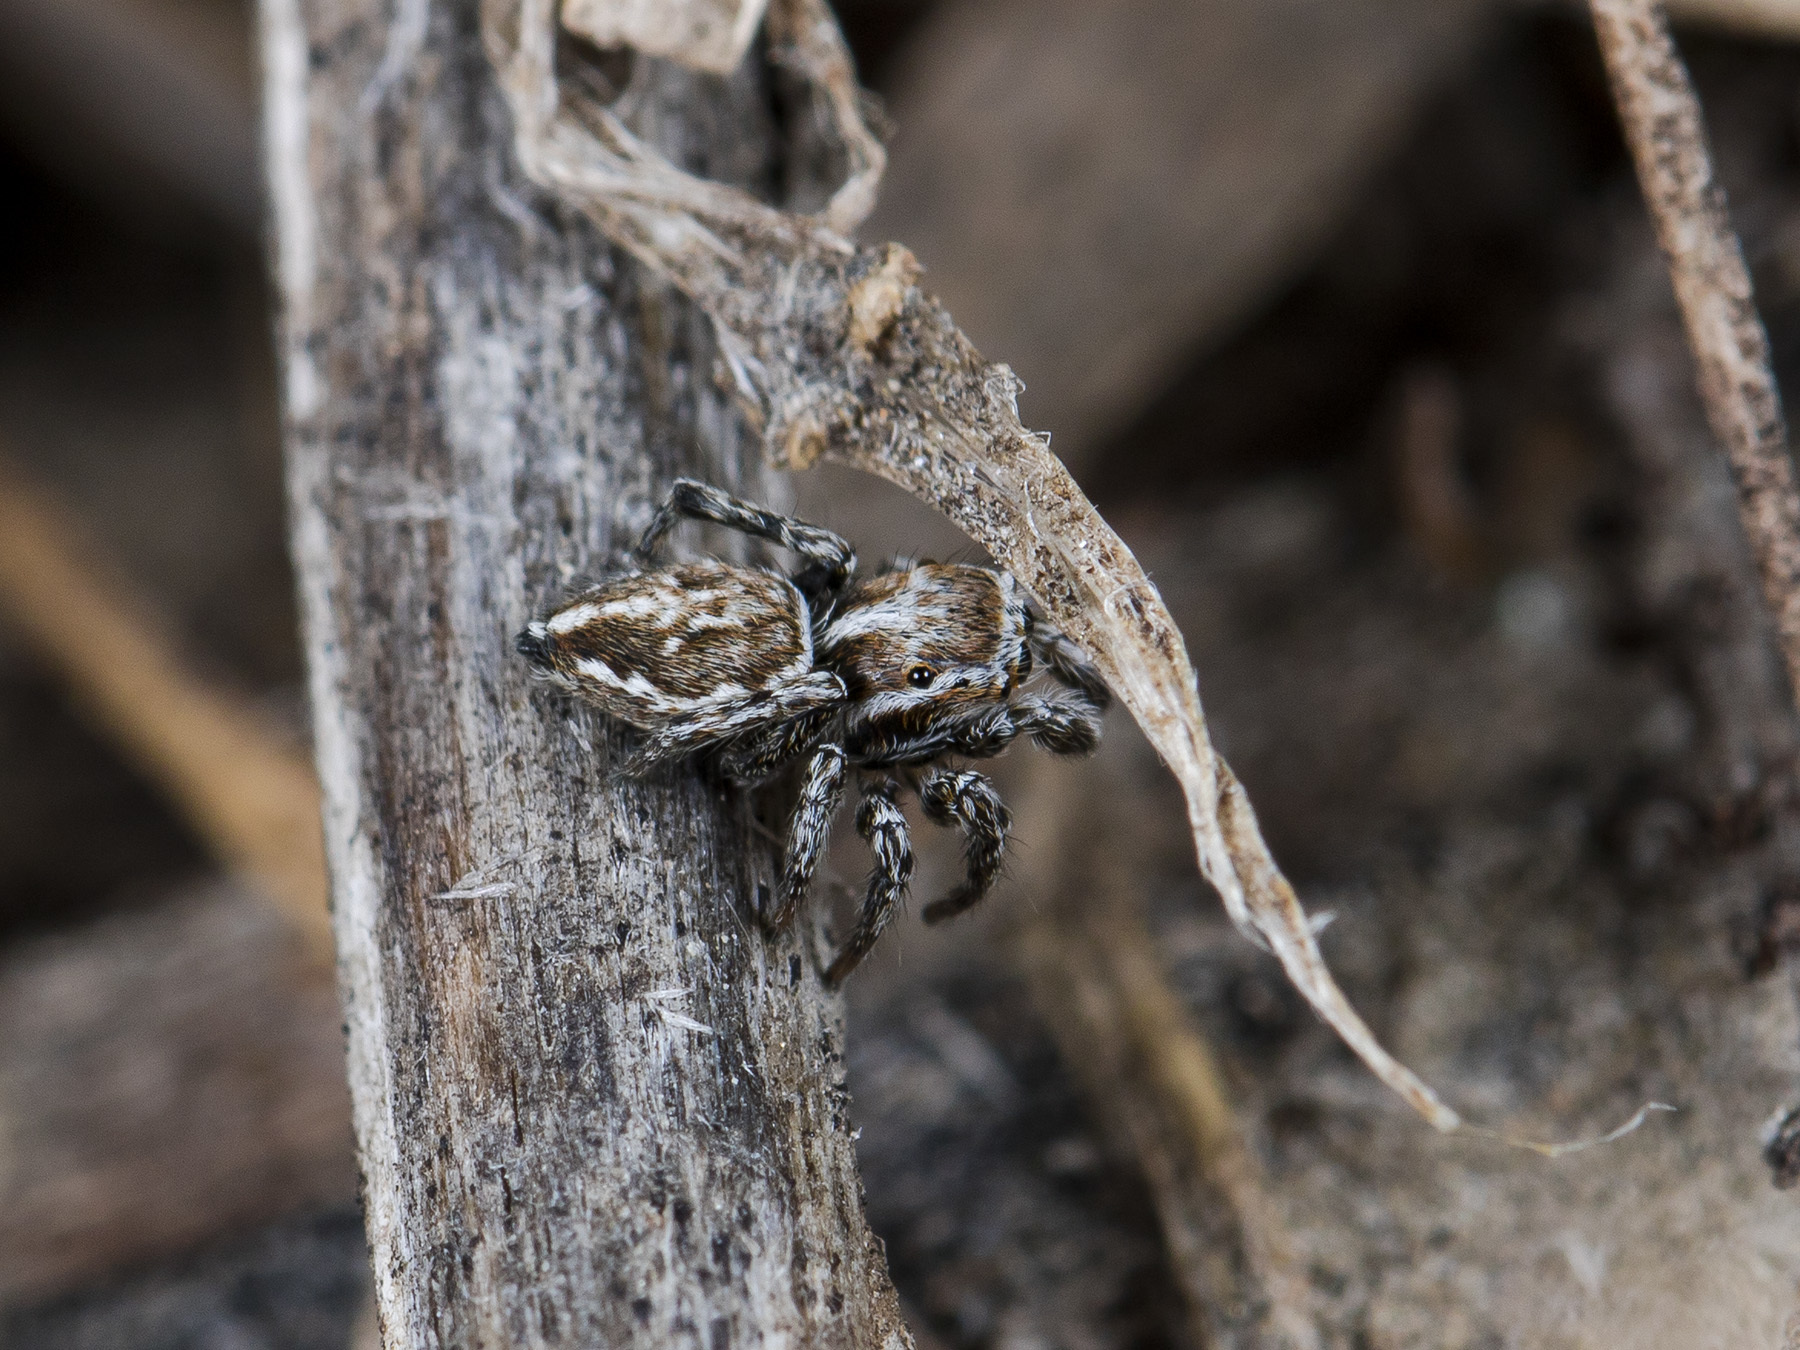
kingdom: Animalia
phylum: Arthropoda
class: Arachnida
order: Araneae
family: Salticidae
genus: Attulus
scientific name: Attulus nenilini
